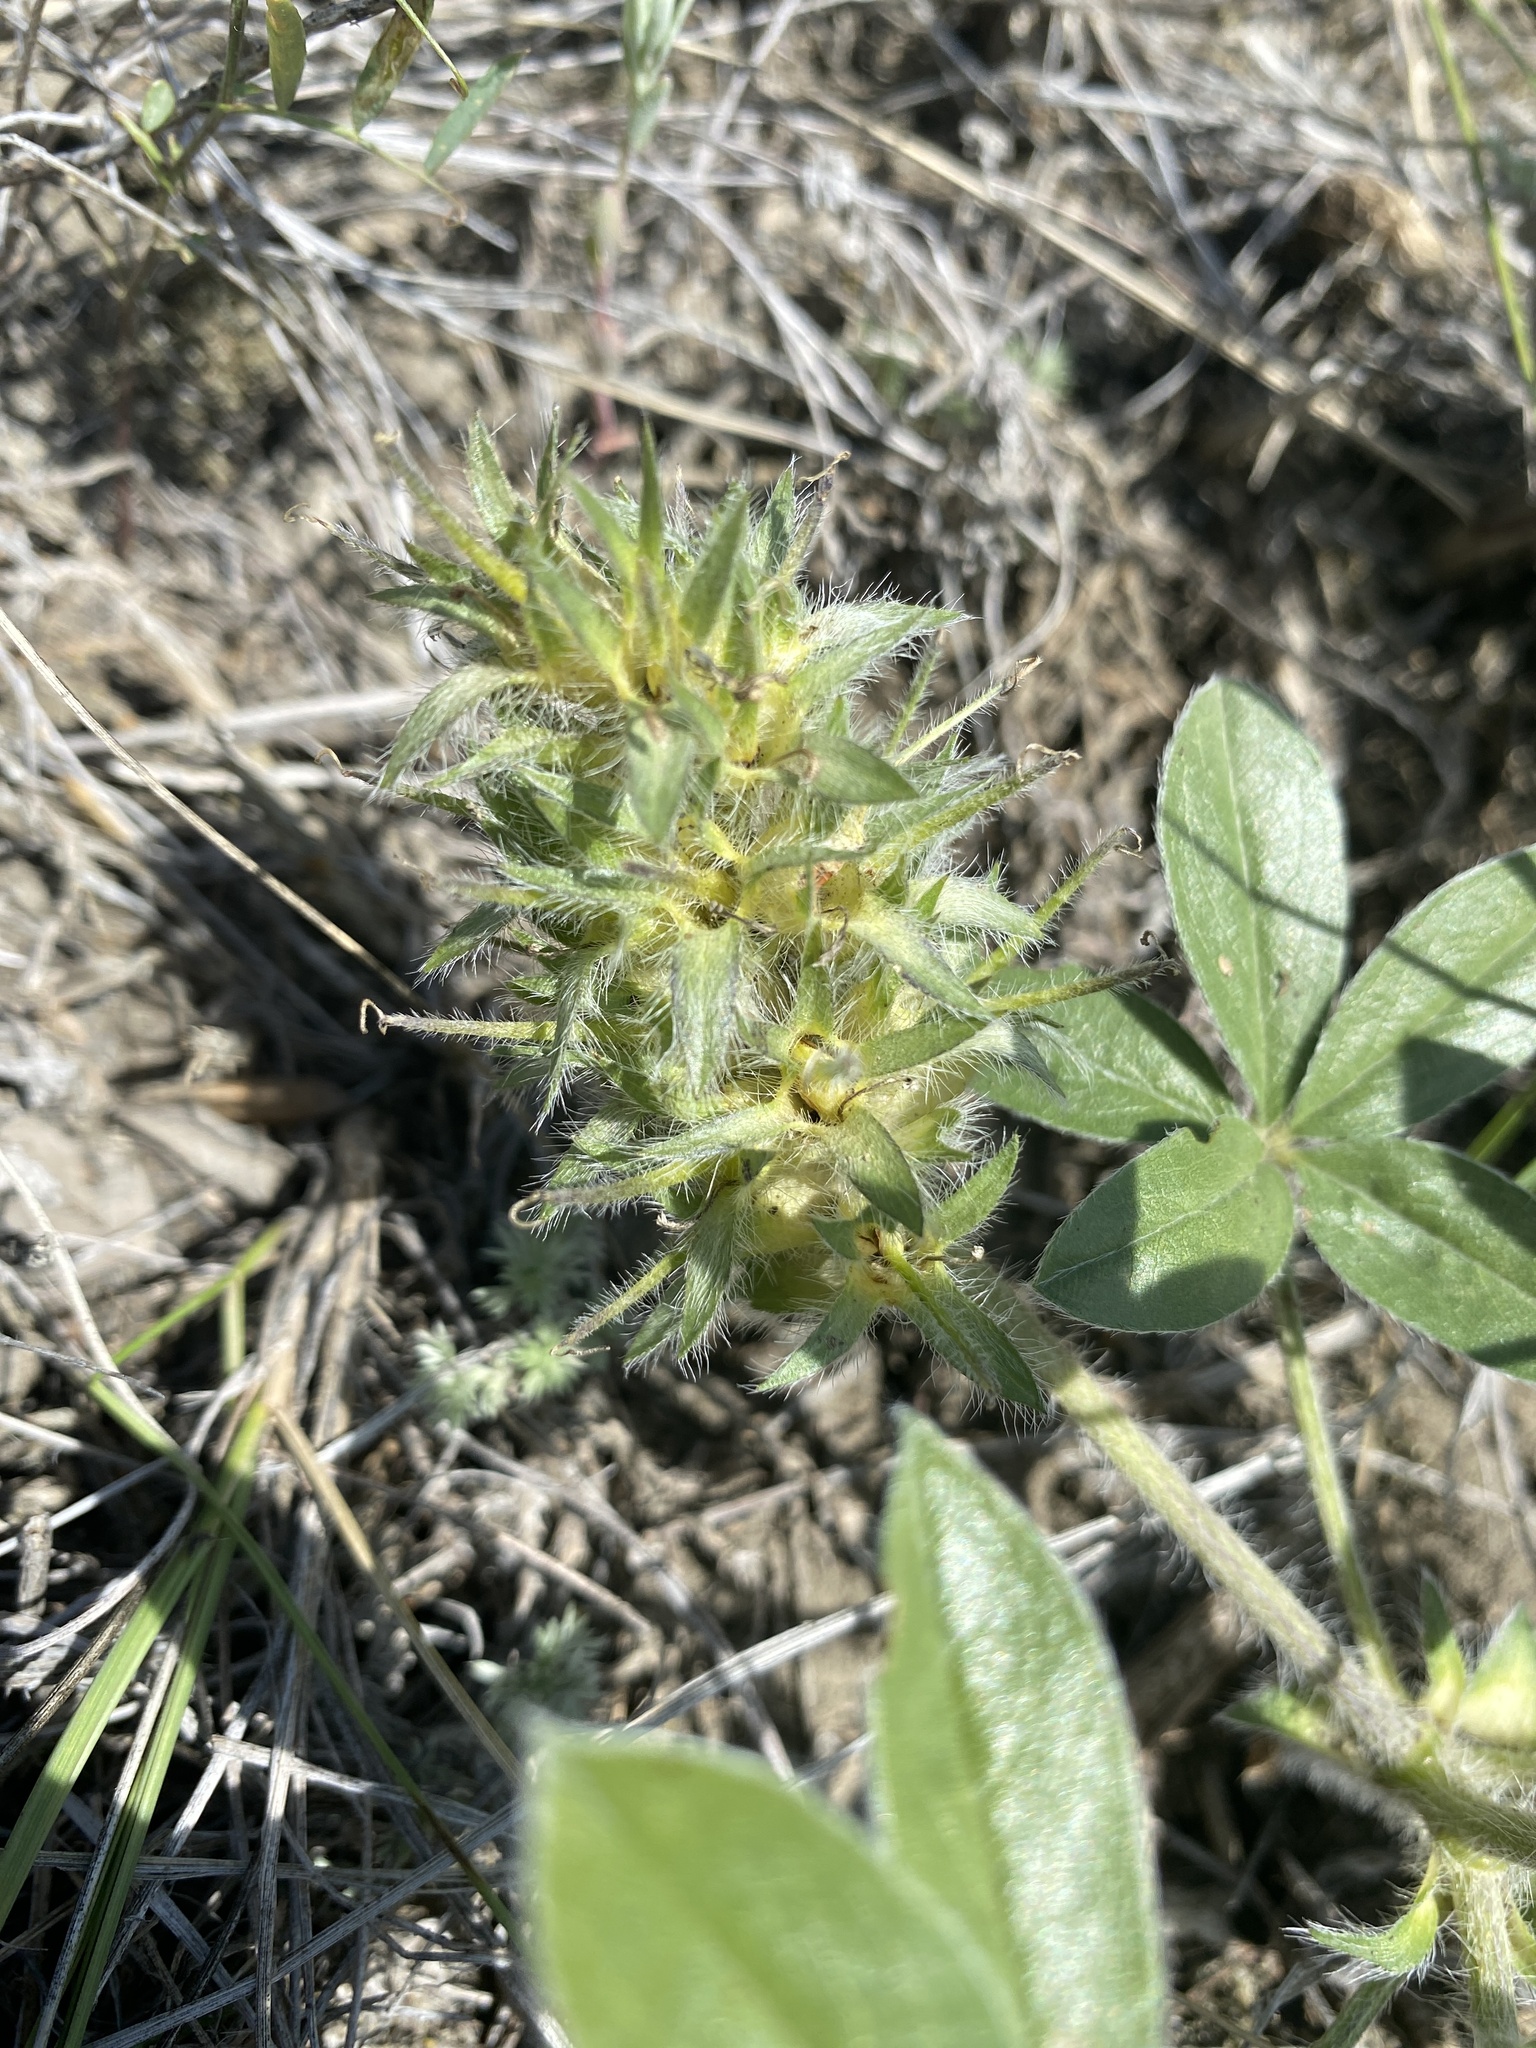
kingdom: Plantae
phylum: Tracheophyta
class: Magnoliopsida
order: Fabales
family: Fabaceae
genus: Pediomelum
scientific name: Pediomelum esculentum
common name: Indian-turnip
